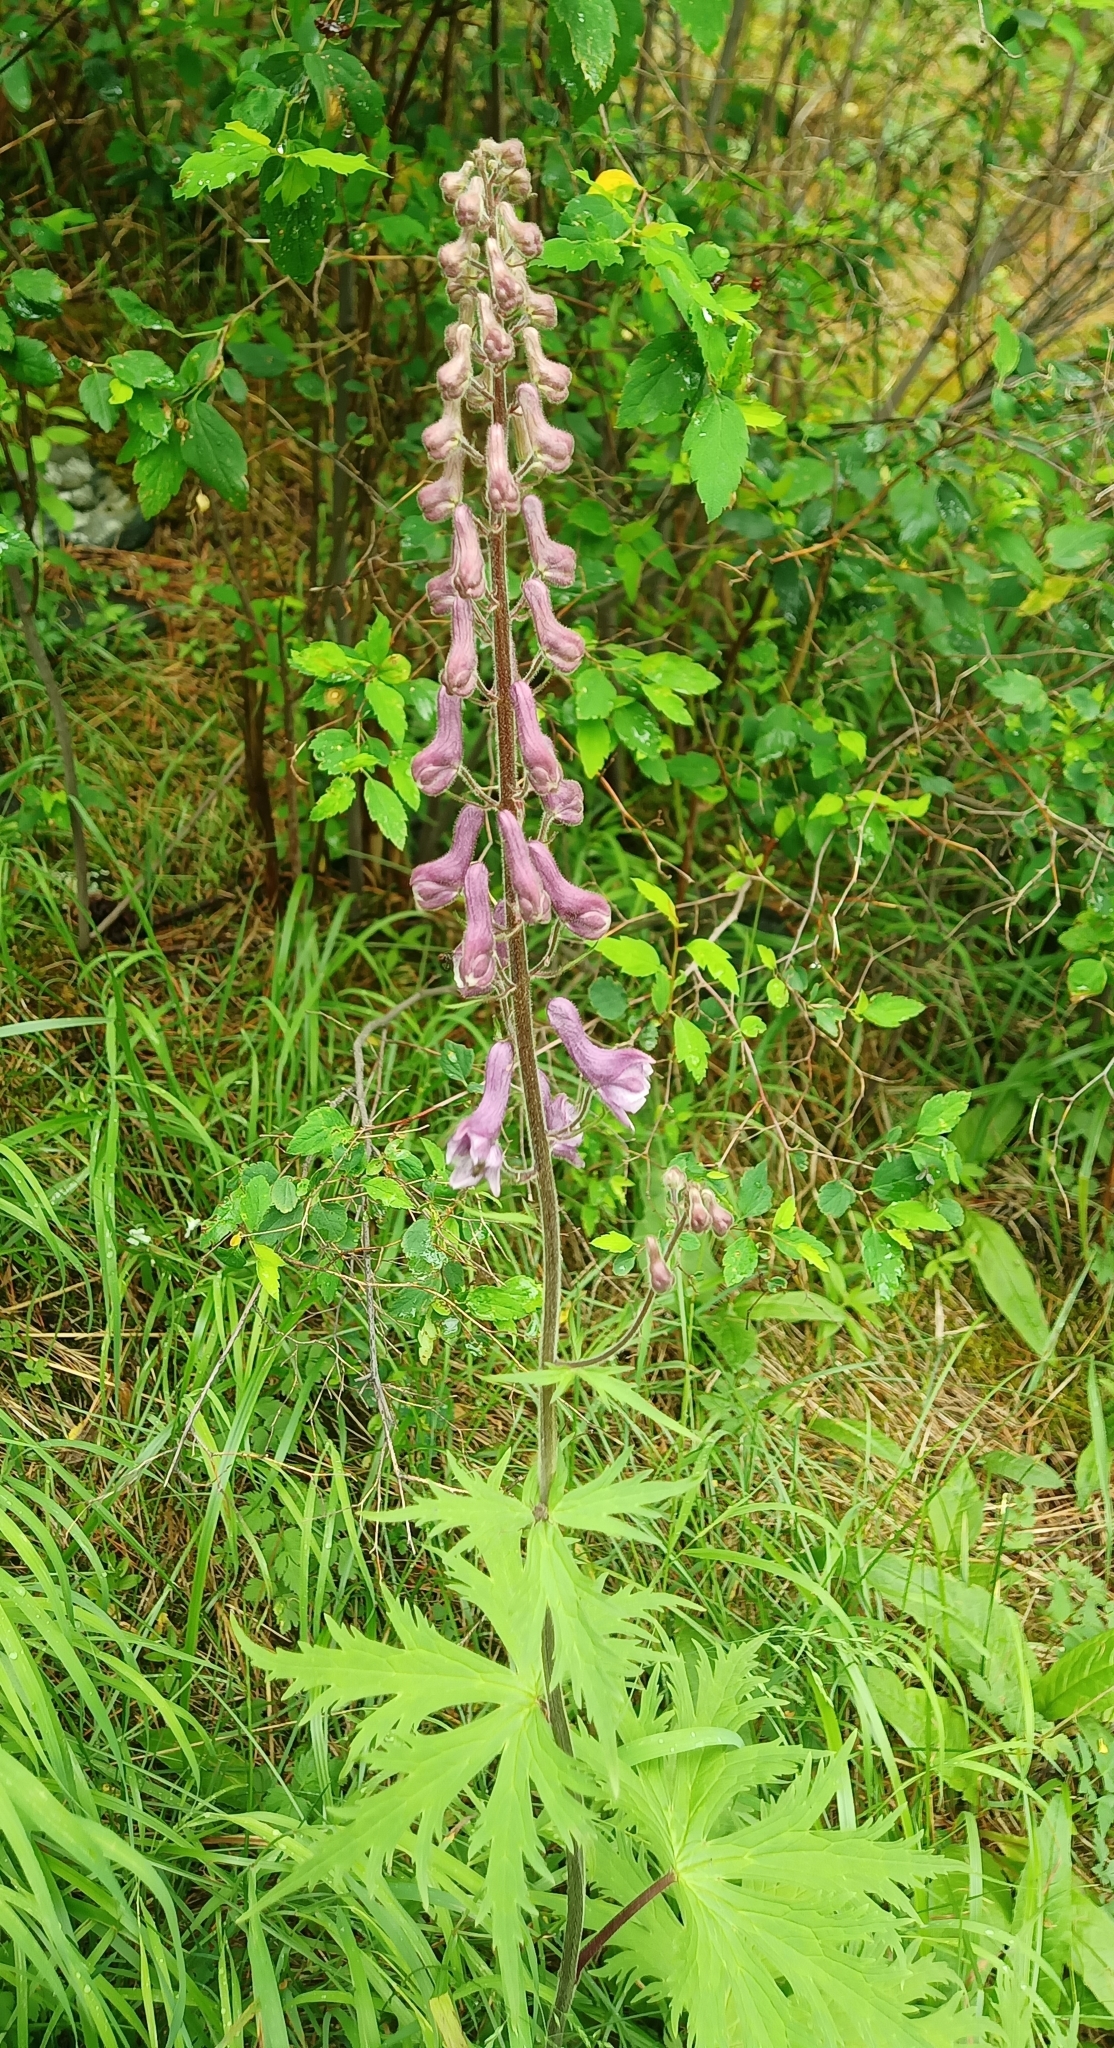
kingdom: Plantae
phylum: Tracheophyta
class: Magnoliopsida
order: Ranunculales
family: Ranunculaceae
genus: Aconitum
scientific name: Aconitum septentrionale
